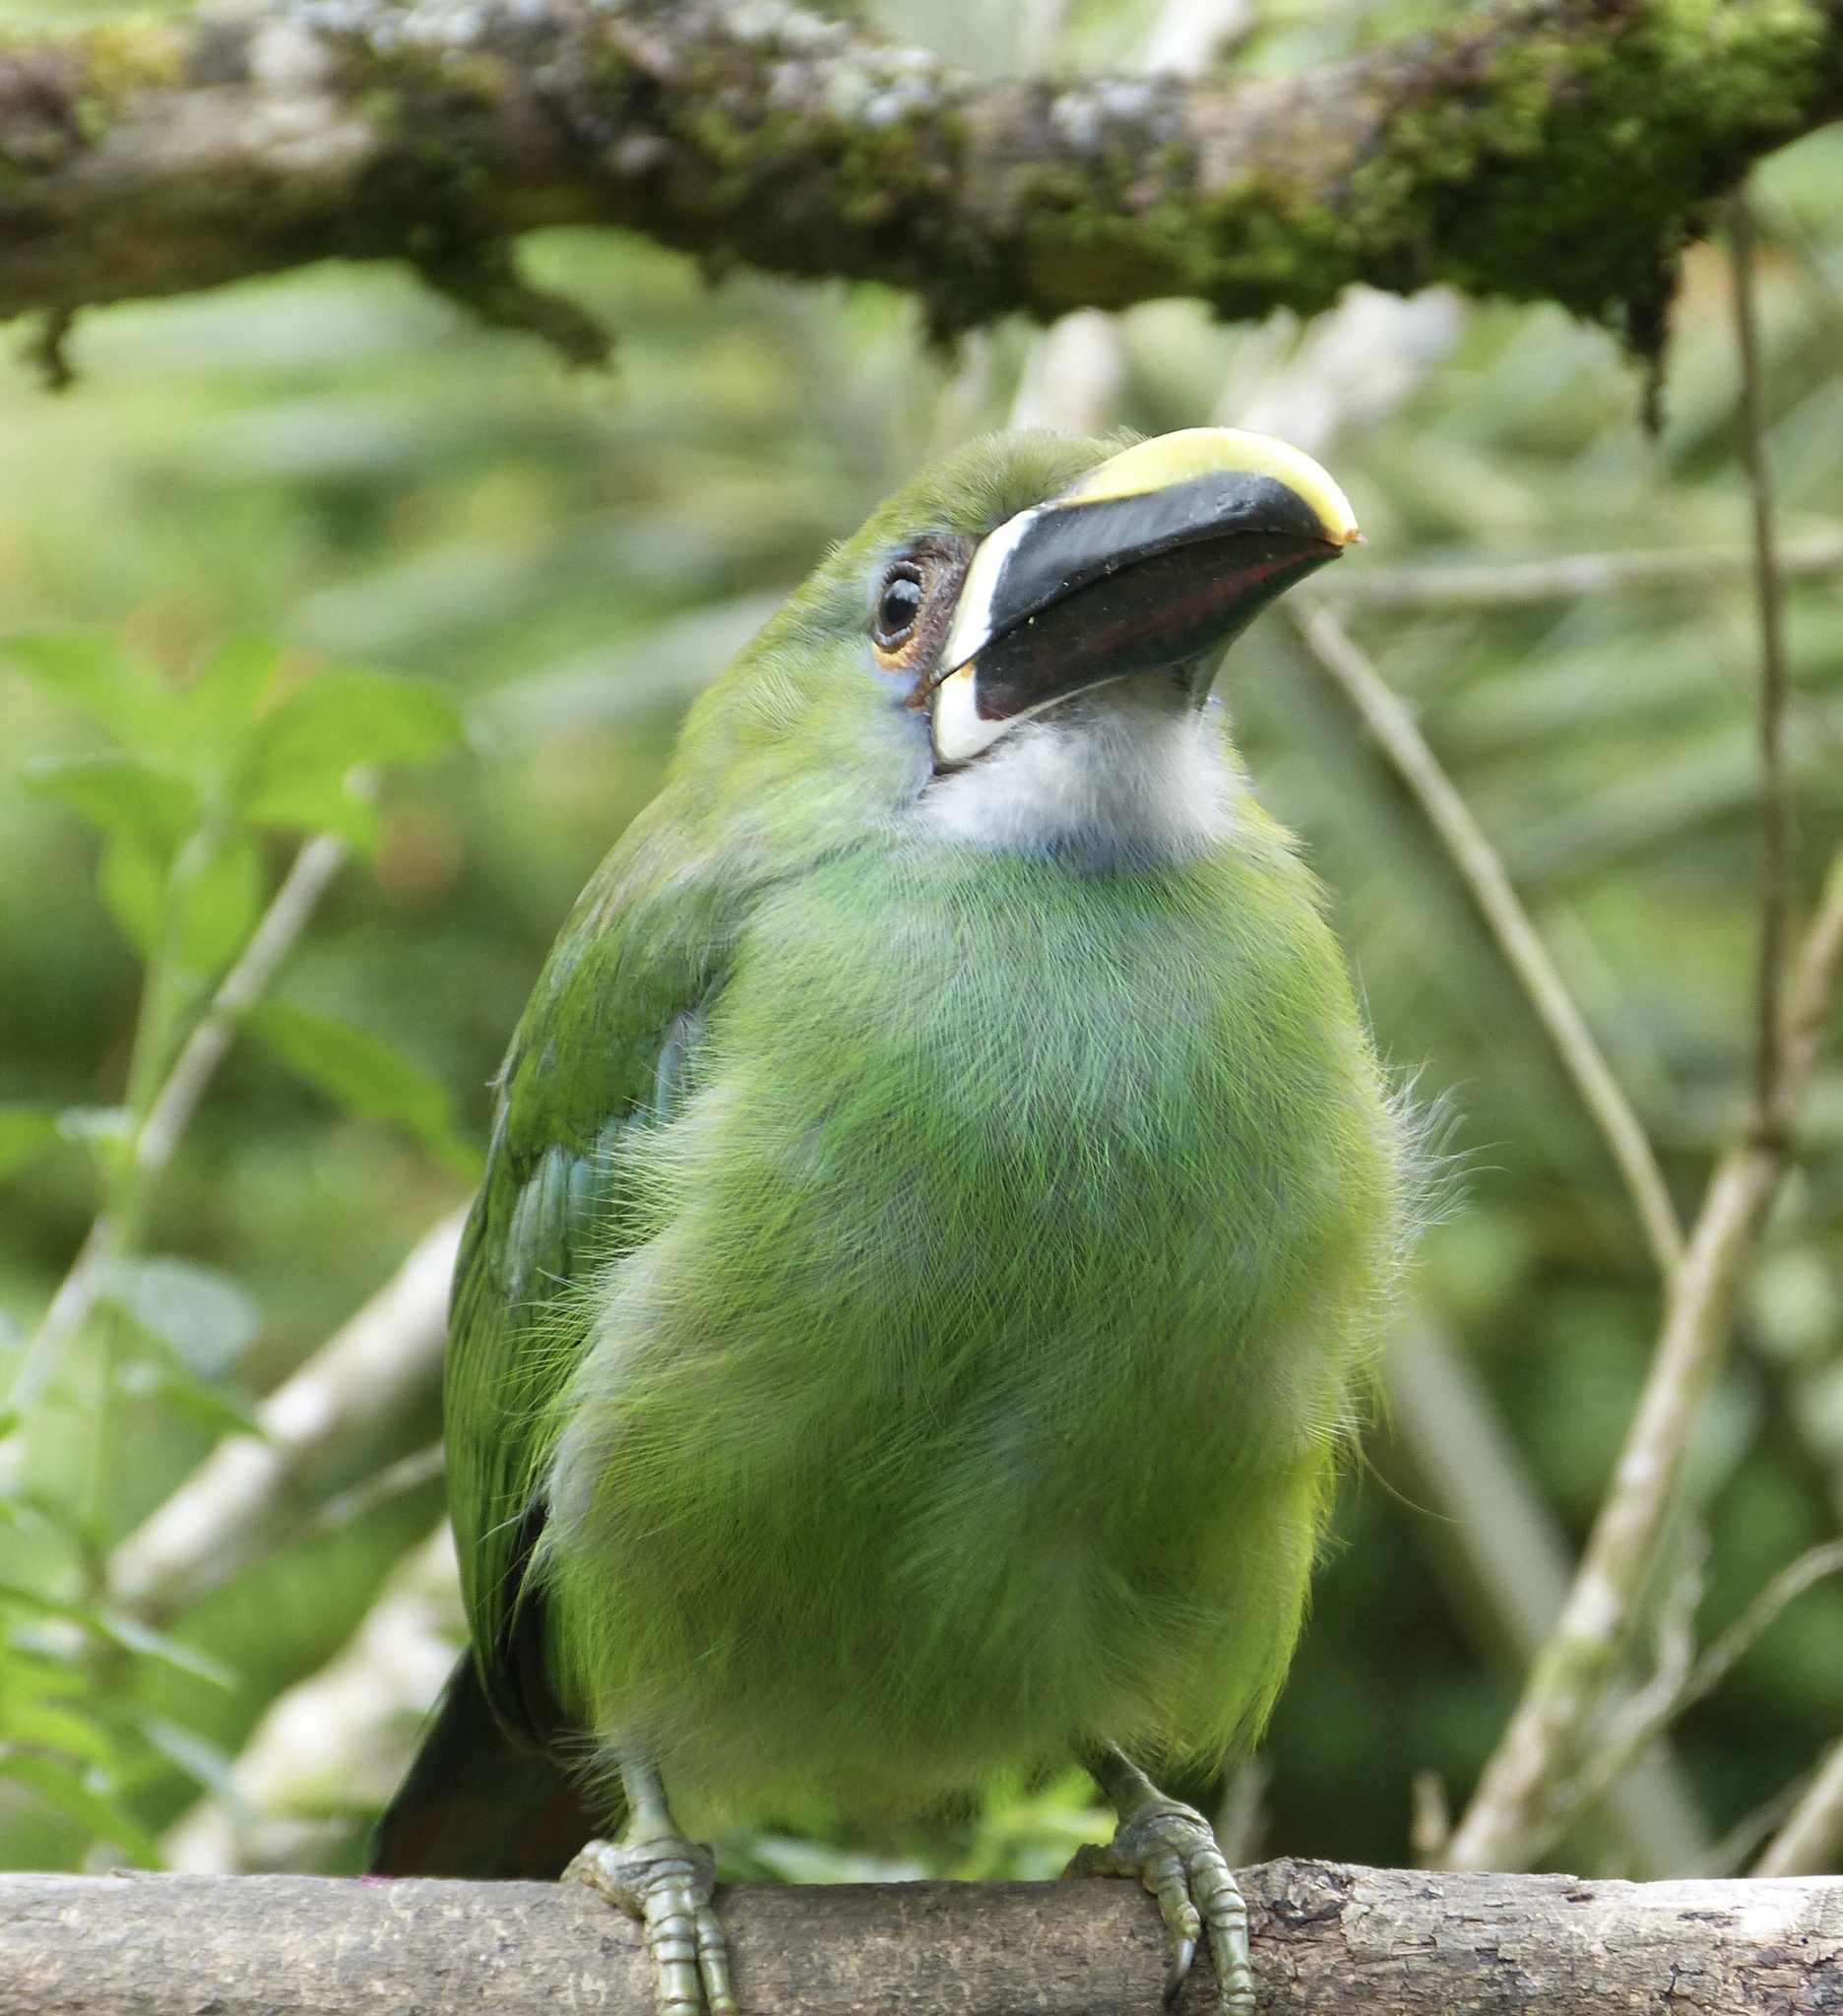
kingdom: Animalia
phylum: Chordata
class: Aves
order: Piciformes
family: Ramphastidae
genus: Aulacorhynchus
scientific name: Aulacorhynchus albivitta
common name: White-throated toucanet
